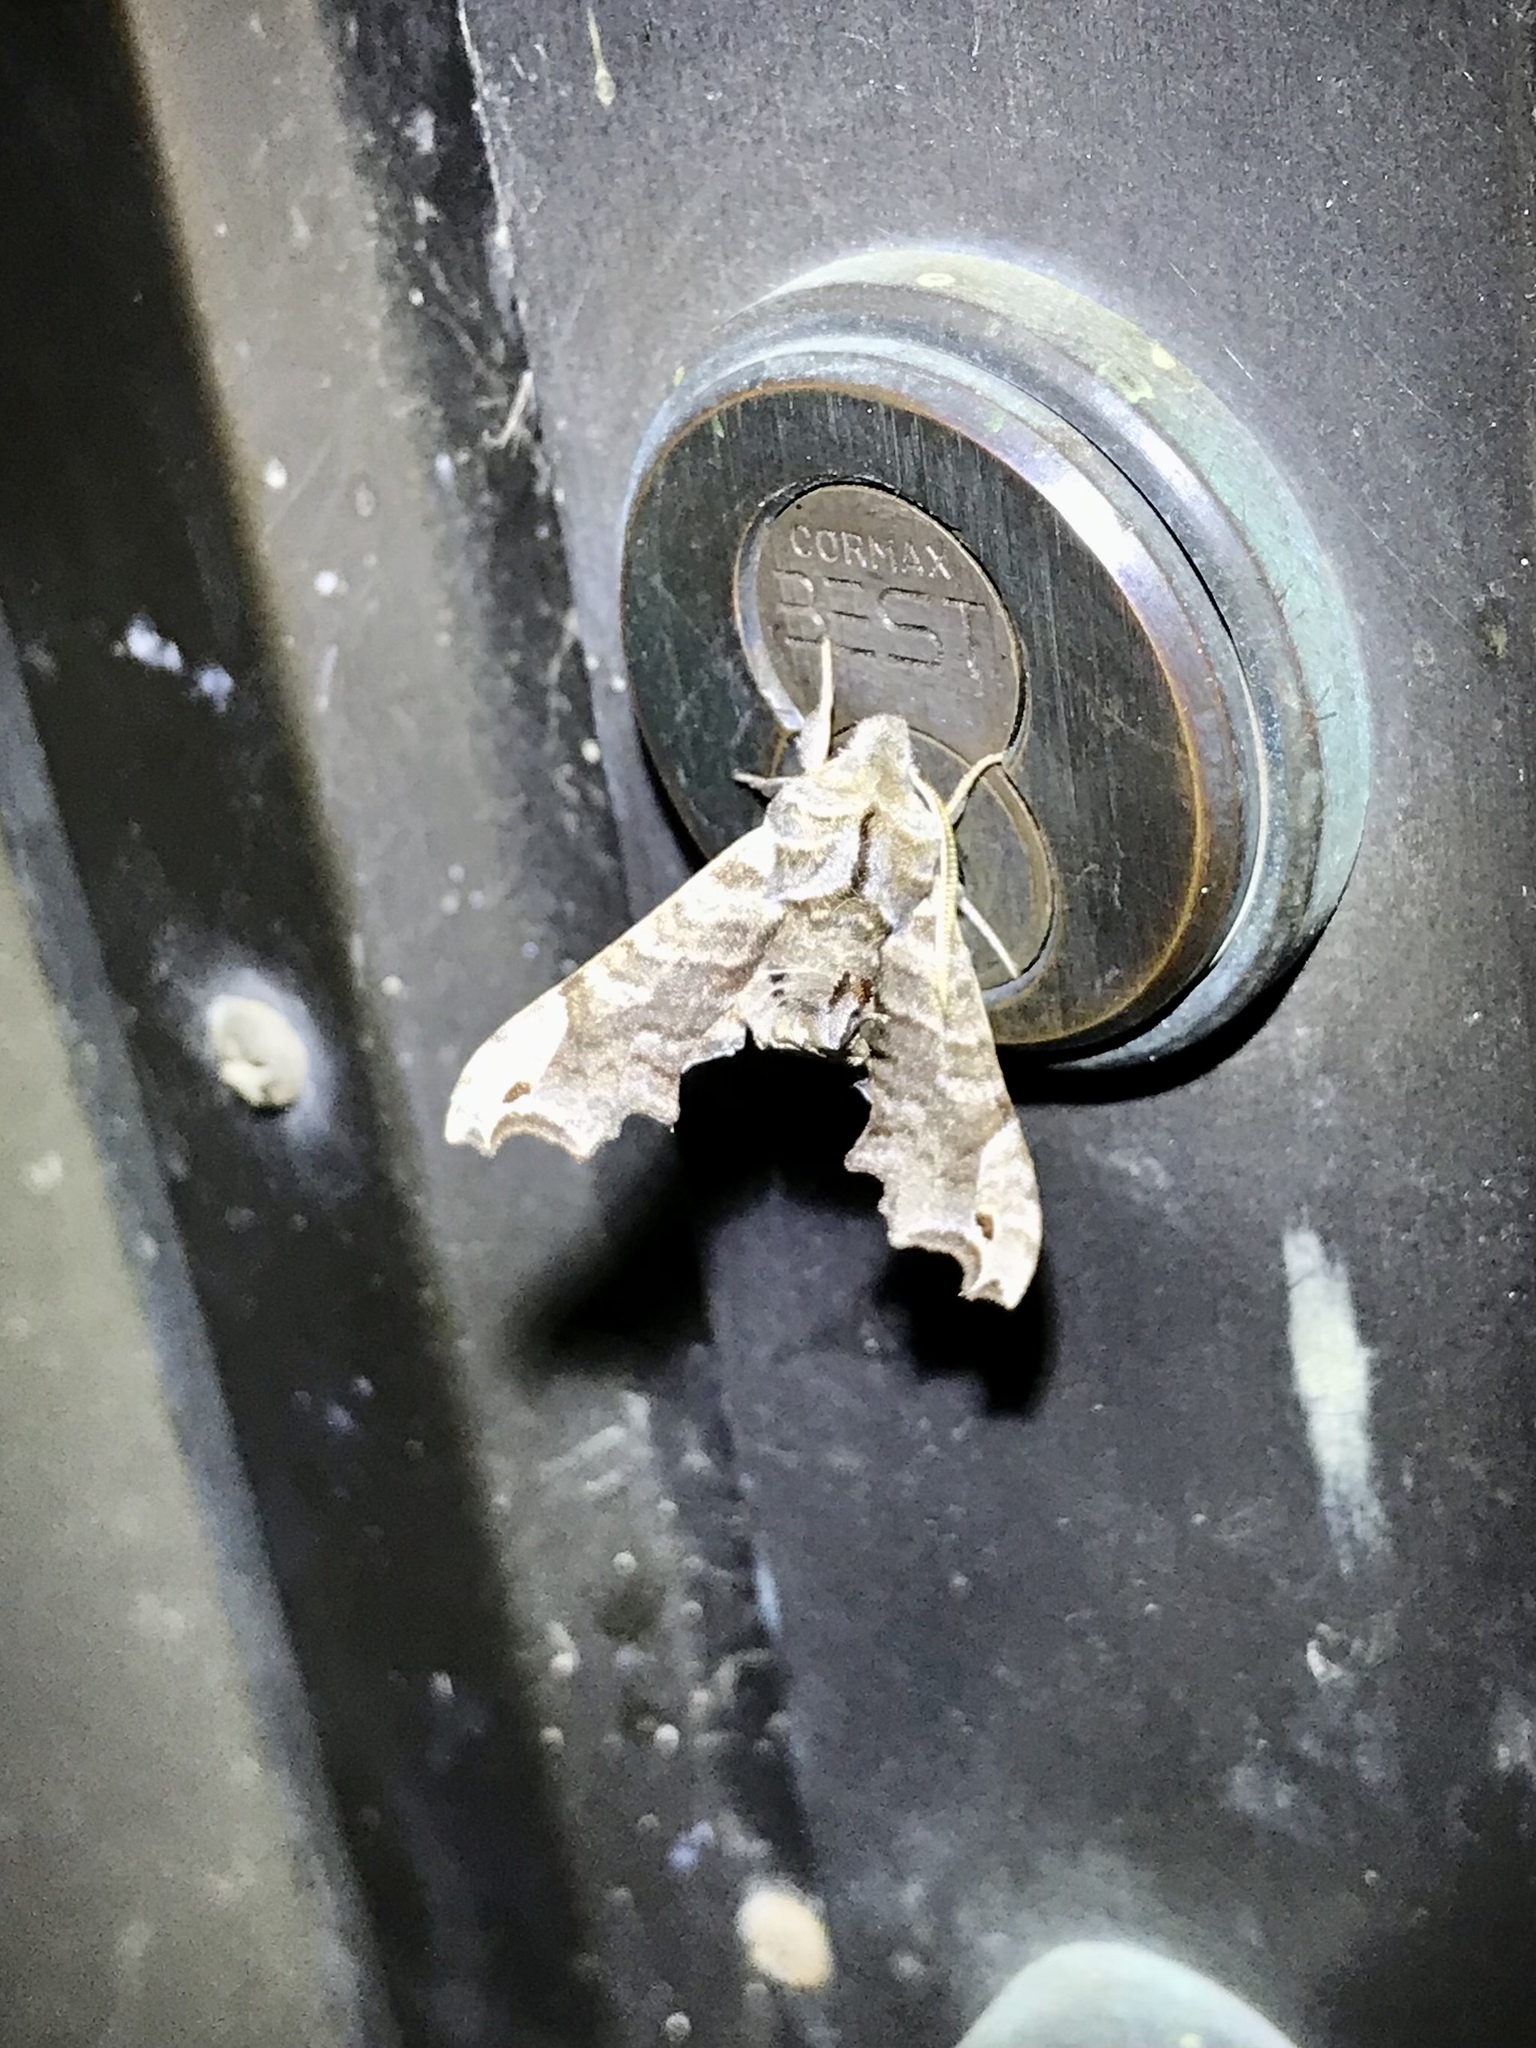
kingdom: Animalia
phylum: Arthropoda
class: Insecta
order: Lepidoptera
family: Sphingidae
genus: Deidamia
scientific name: Deidamia inscriptum
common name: Lettered sphinx
